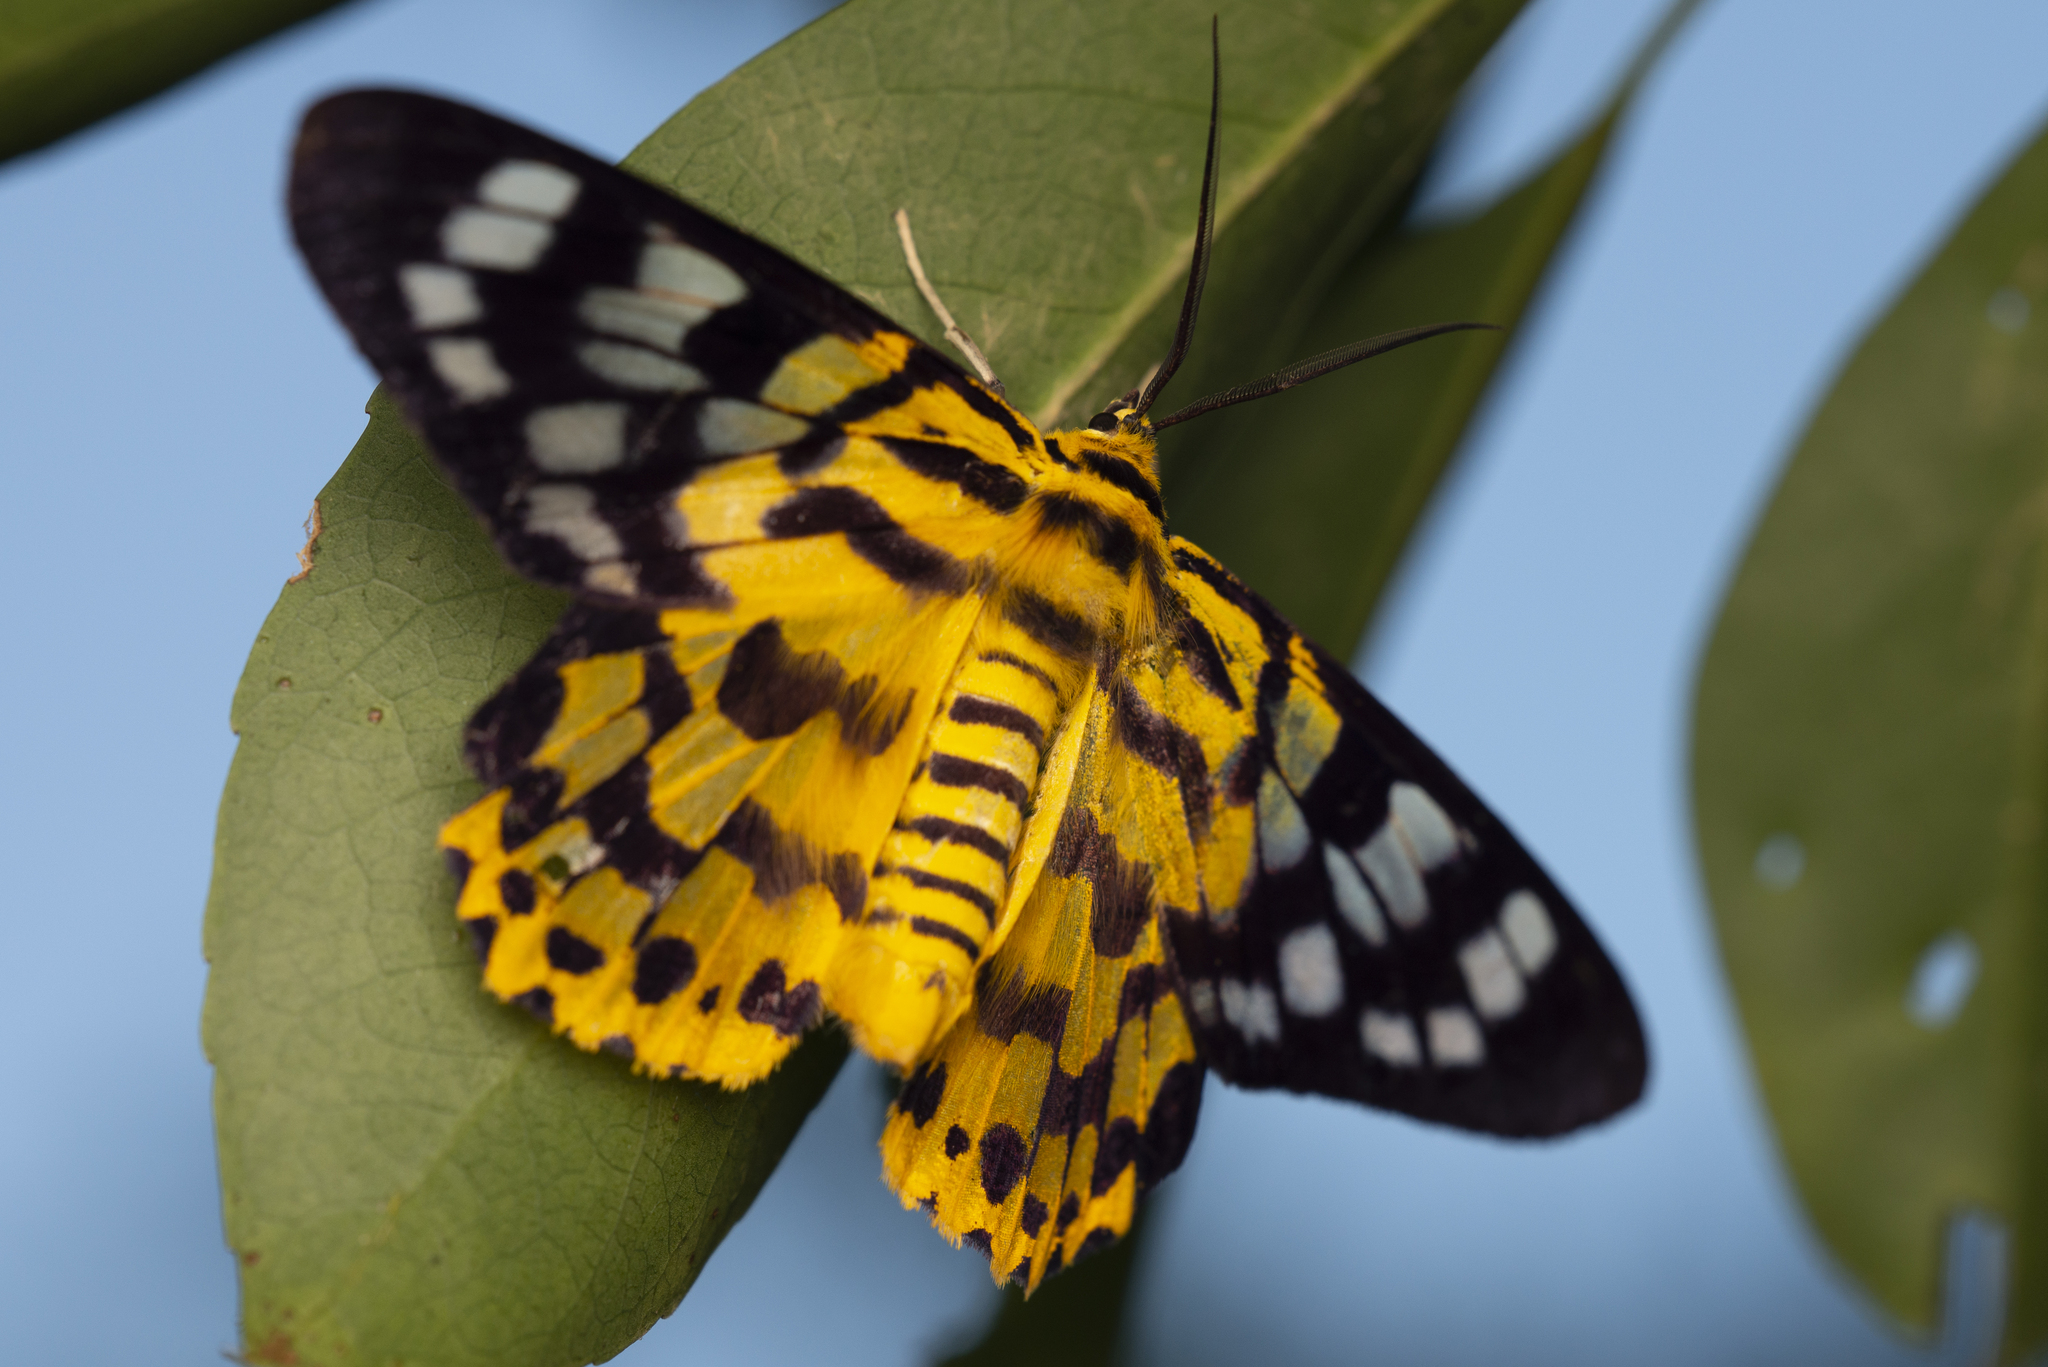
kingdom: Animalia
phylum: Arthropoda
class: Insecta
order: Lepidoptera
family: Geometridae
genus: Dysphania
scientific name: Dysphania militaris
